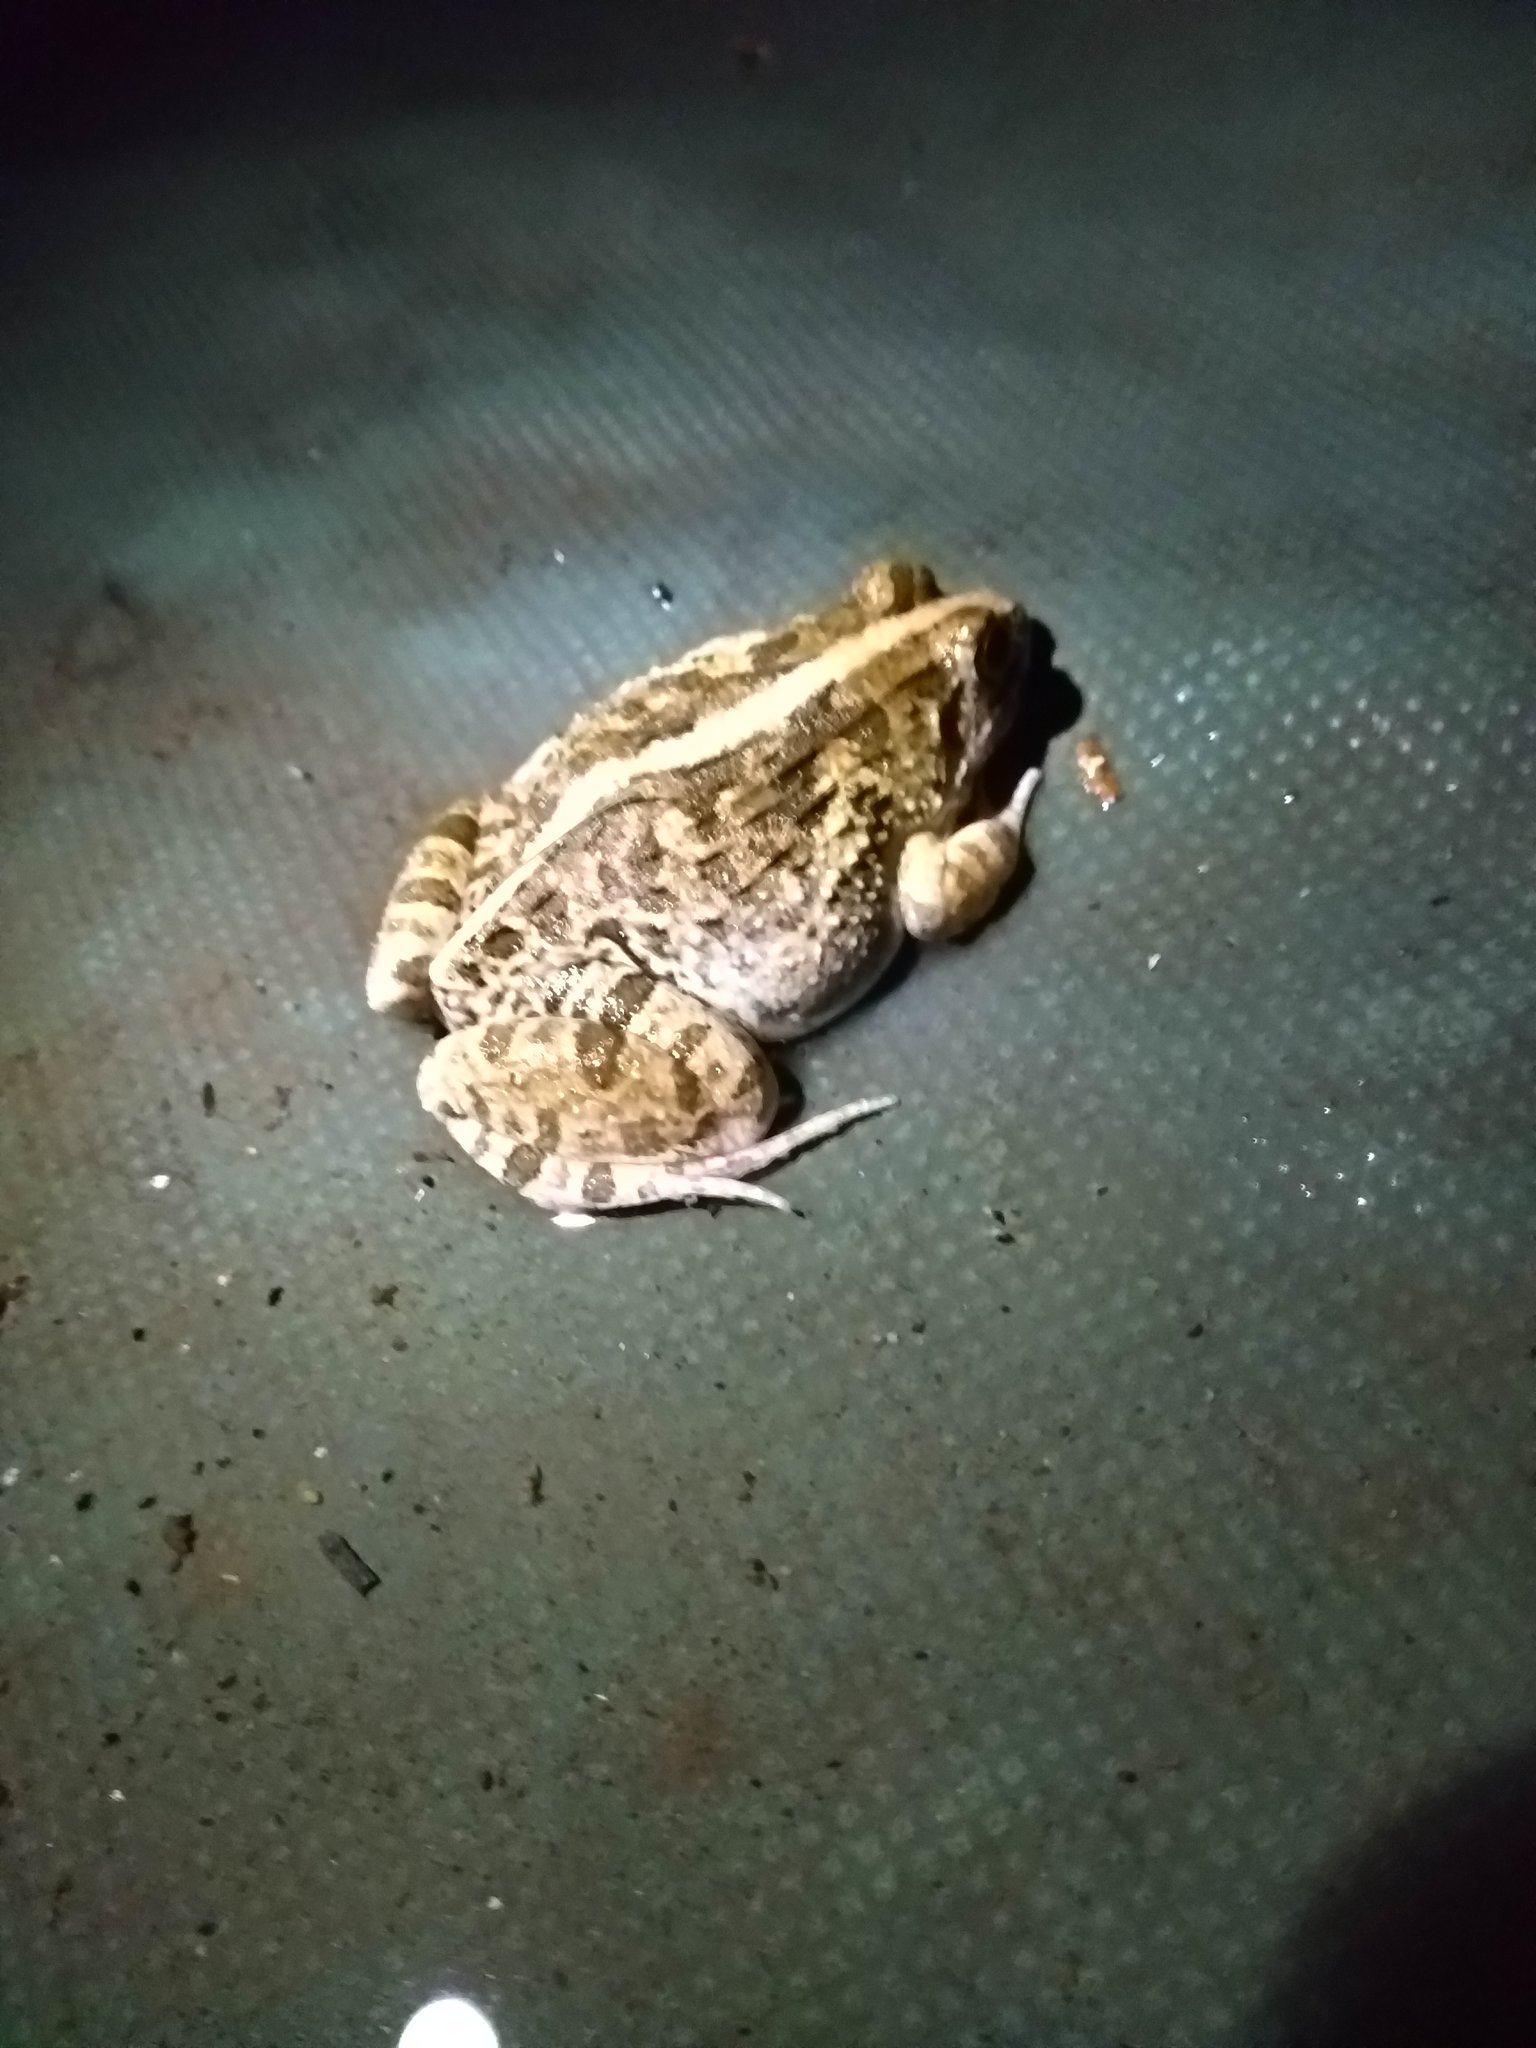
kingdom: Animalia
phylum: Chordata
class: Amphibia
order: Anura
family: Dicroglossidae
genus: Fejervarya
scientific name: Fejervarya limnocharis
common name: Asian grass frog/common pond frog/field frog/grass frog/indian rice frog
